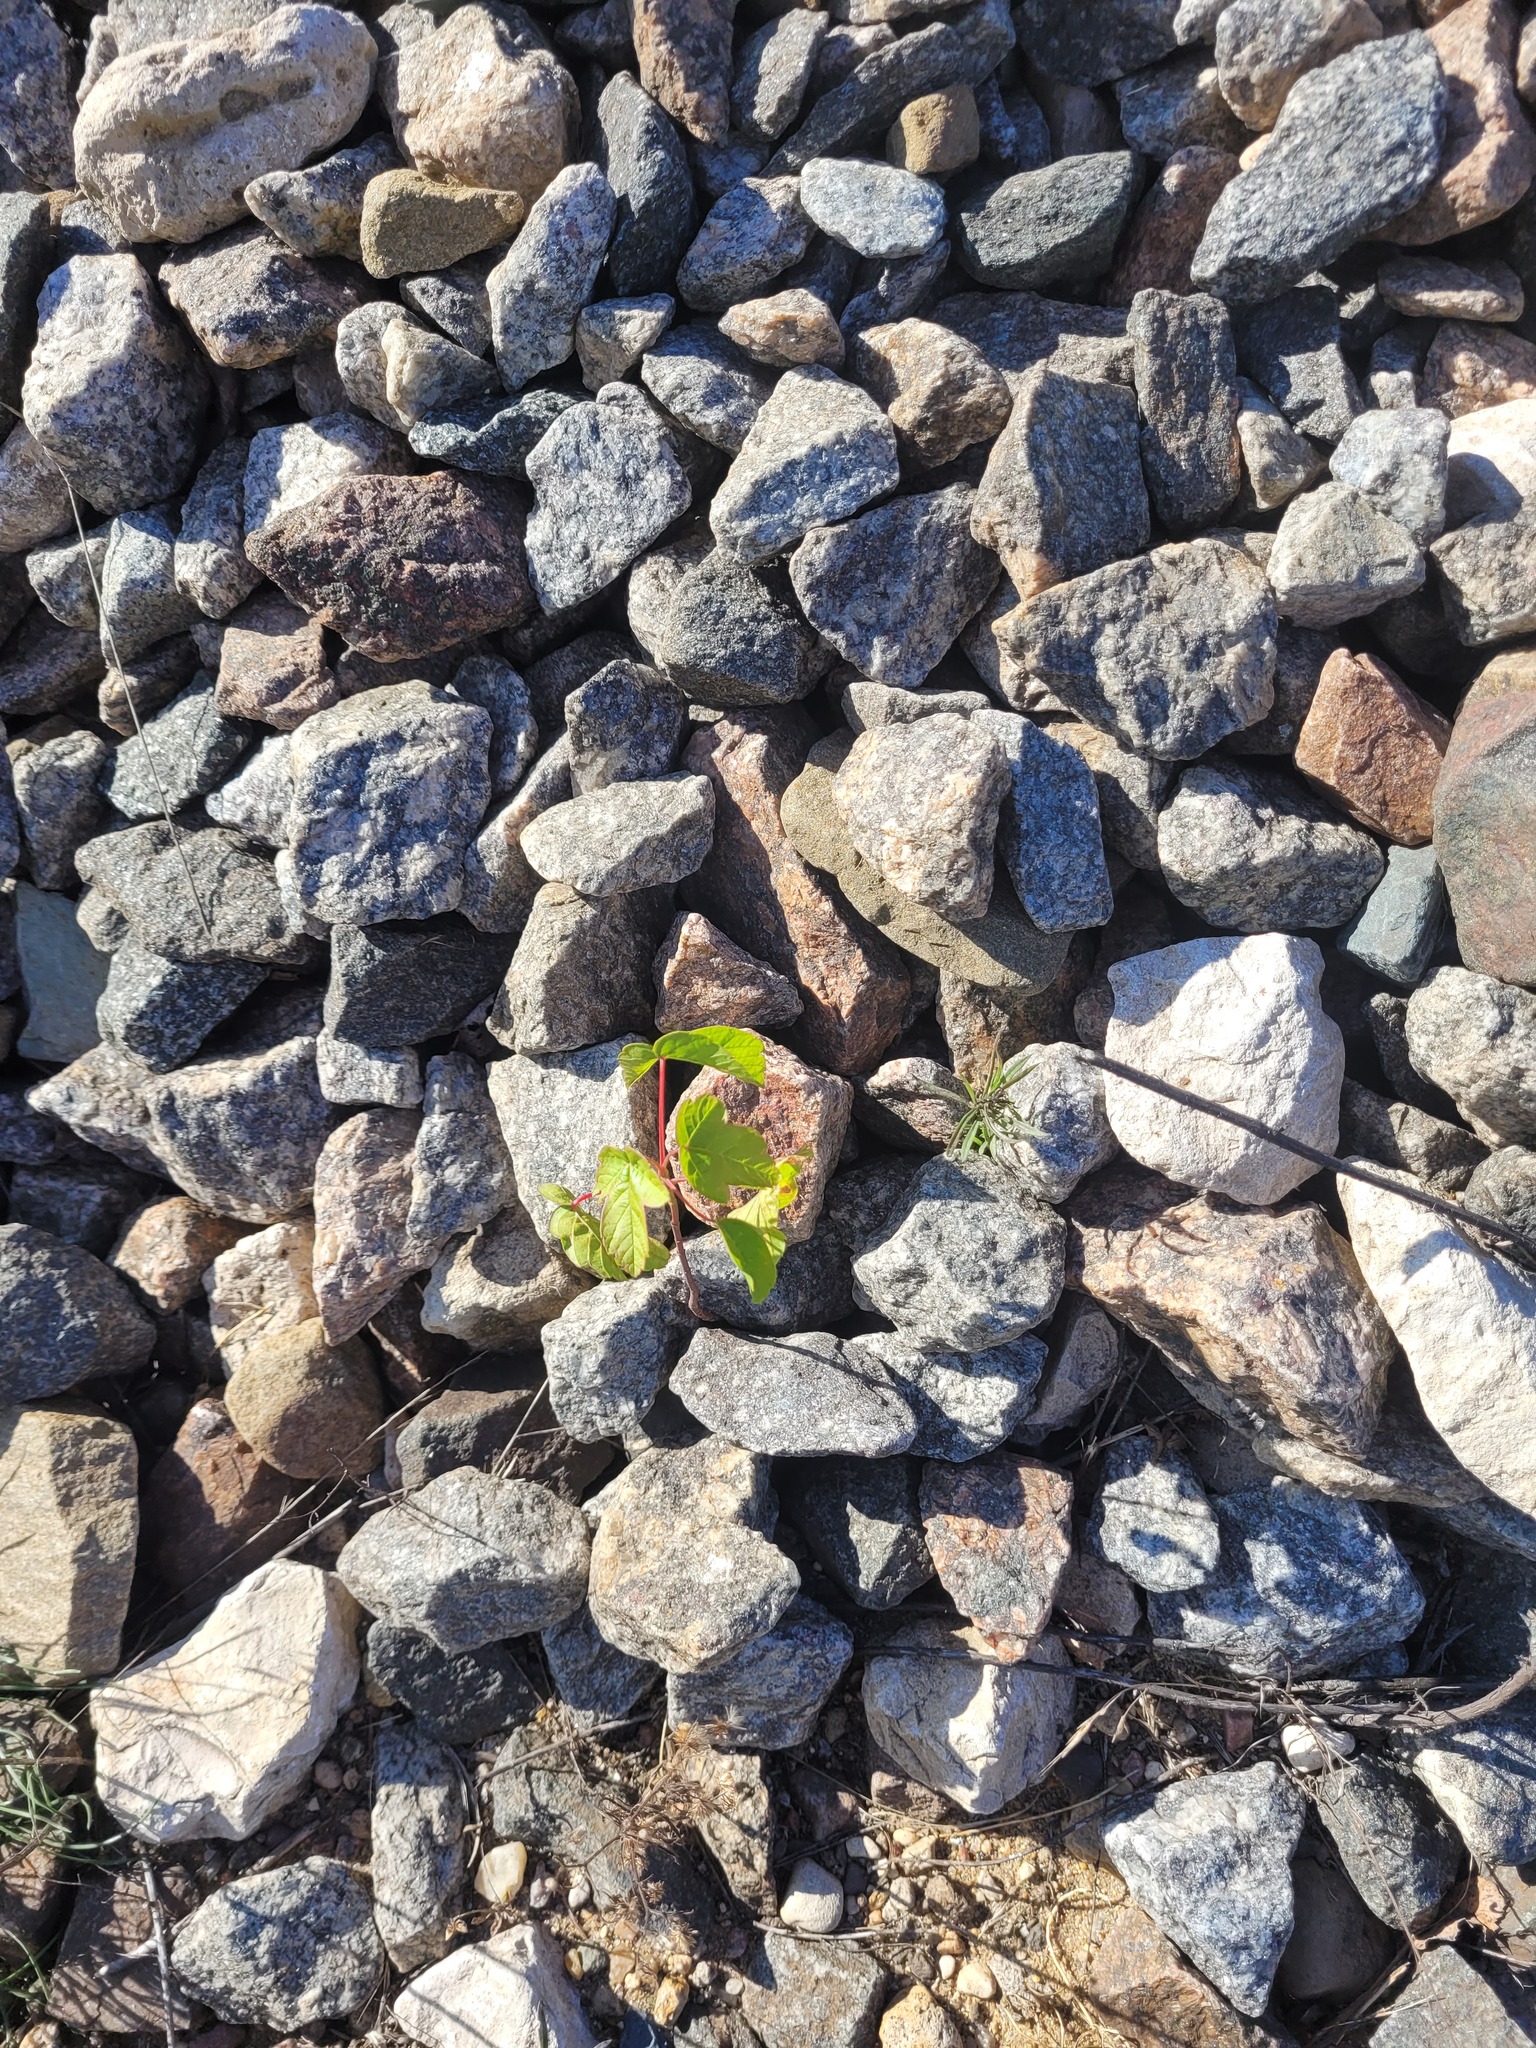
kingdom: Plantae
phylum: Tracheophyta
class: Magnoliopsida
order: Sapindales
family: Sapindaceae
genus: Acer
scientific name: Acer negundo
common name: Ashleaf maple
